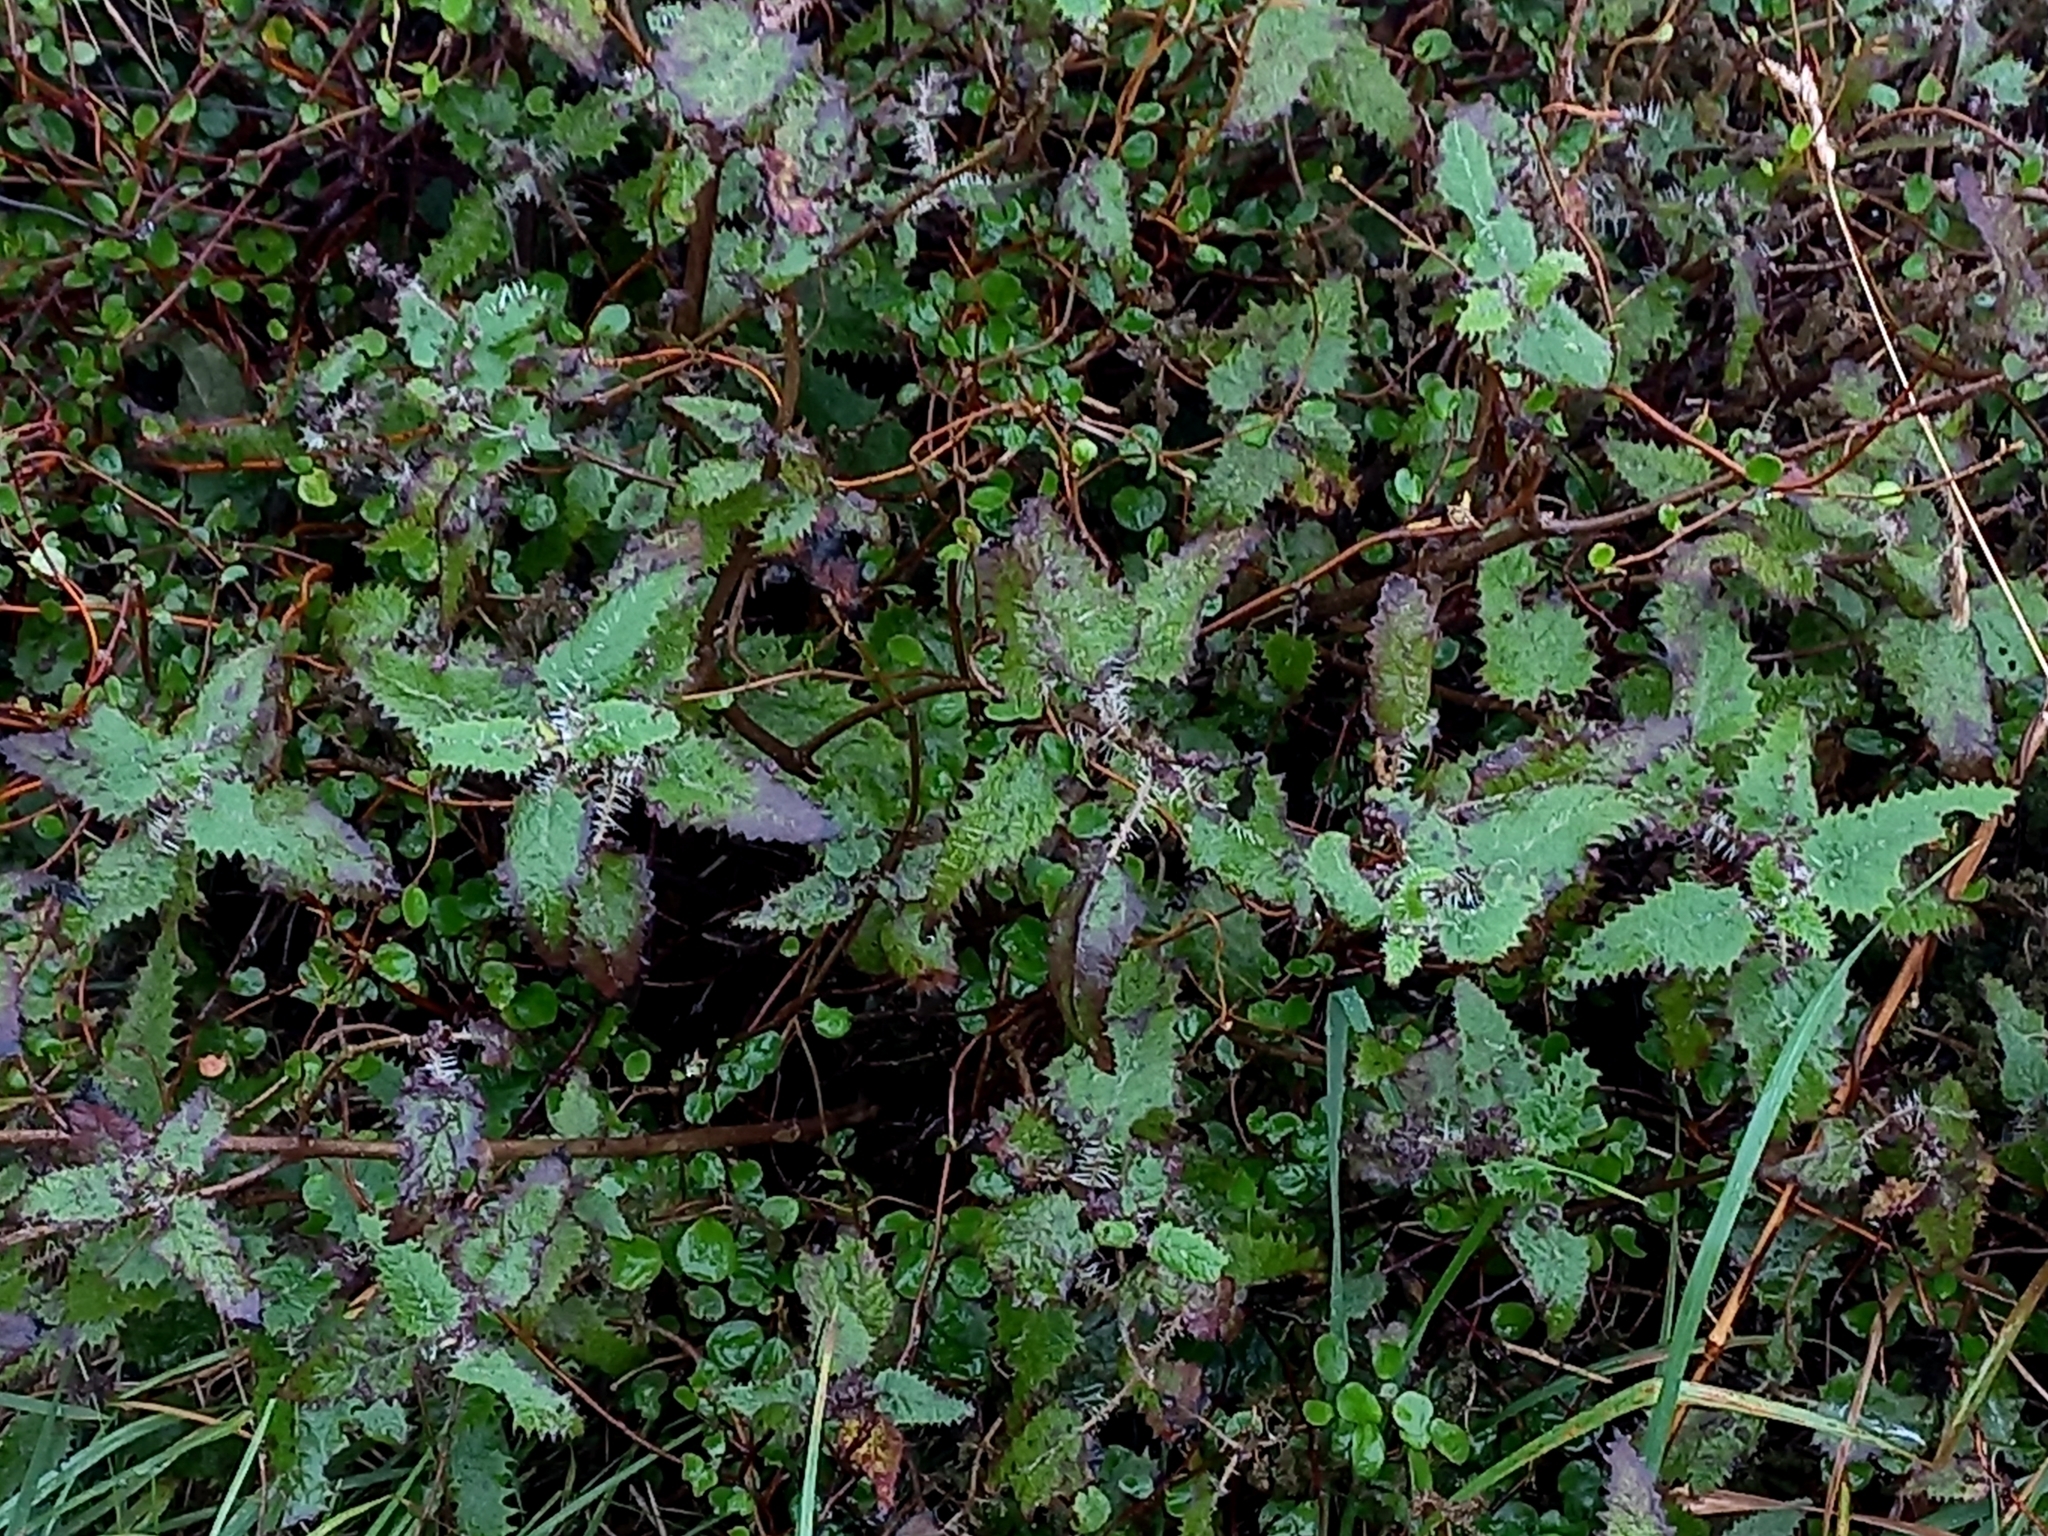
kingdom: Plantae
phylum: Tracheophyta
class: Magnoliopsida
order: Rosales
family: Urticaceae
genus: Urtica
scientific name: Urtica ferox
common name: Tree nettle
